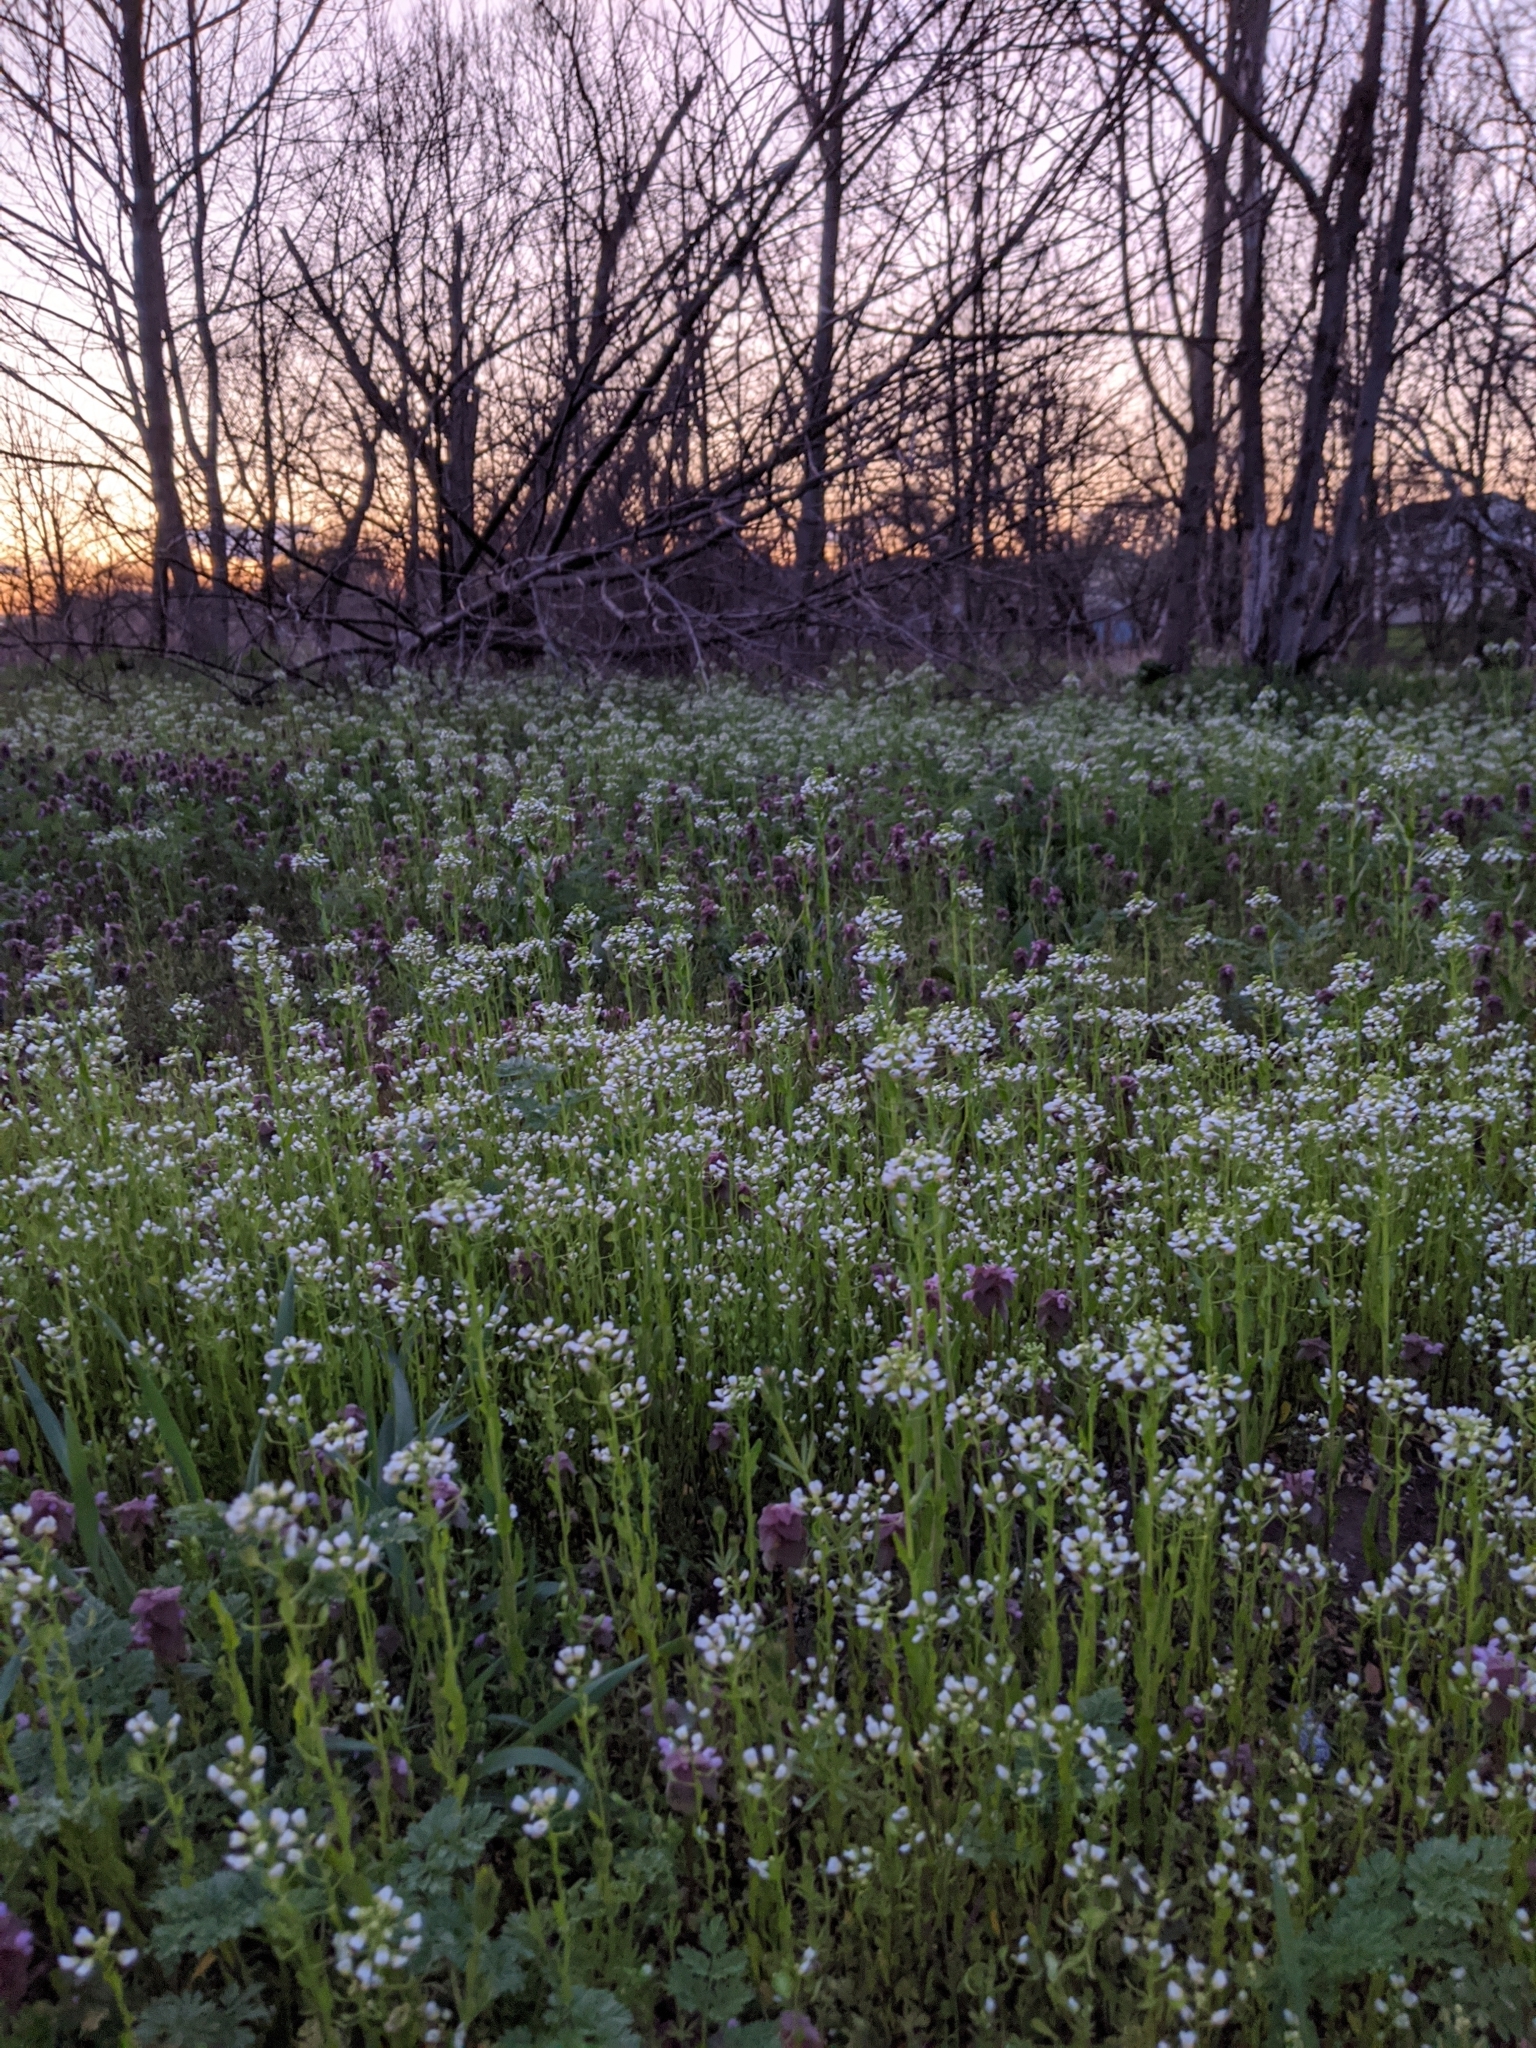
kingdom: Plantae
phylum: Tracheophyta
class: Magnoliopsida
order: Brassicales
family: Brassicaceae
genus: Mummenhoffia
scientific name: Mummenhoffia alliacea
